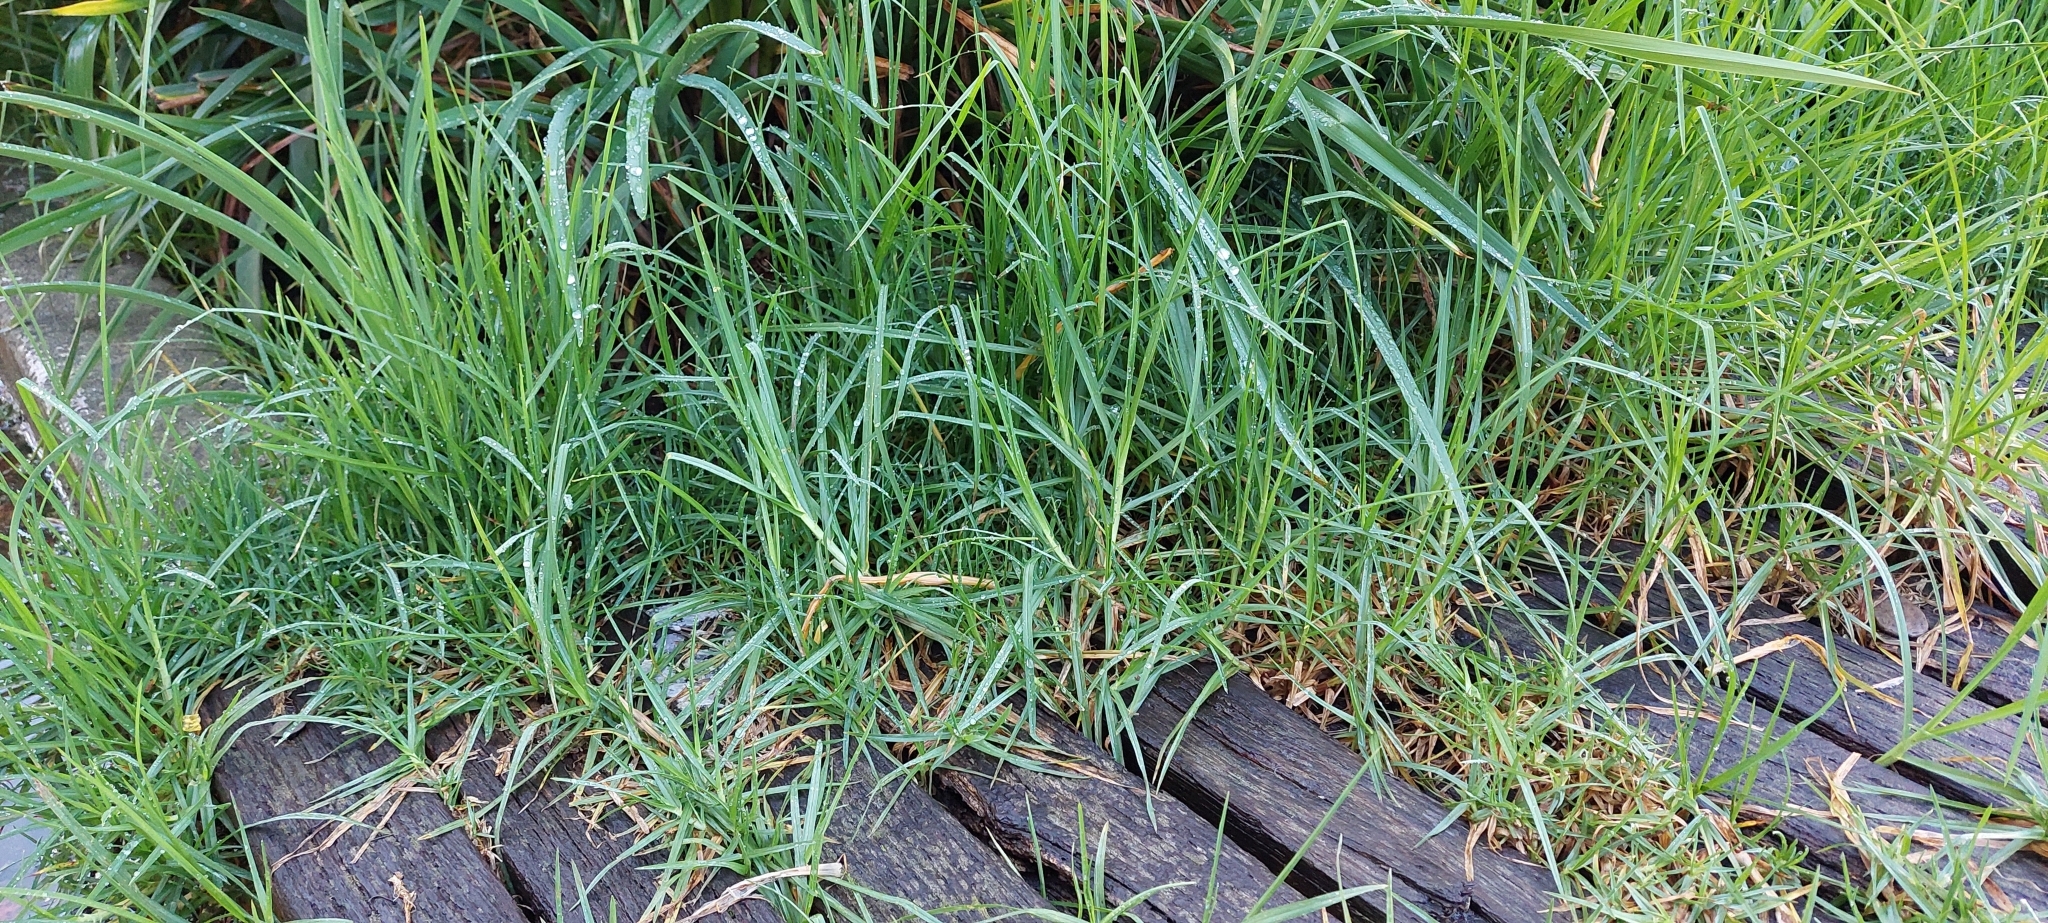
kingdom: Plantae
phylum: Tracheophyta
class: Liliopsida
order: Poales
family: Poaceae
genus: Cenchrus
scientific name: Cenchrus clandestinus
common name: Kikuyugrass
